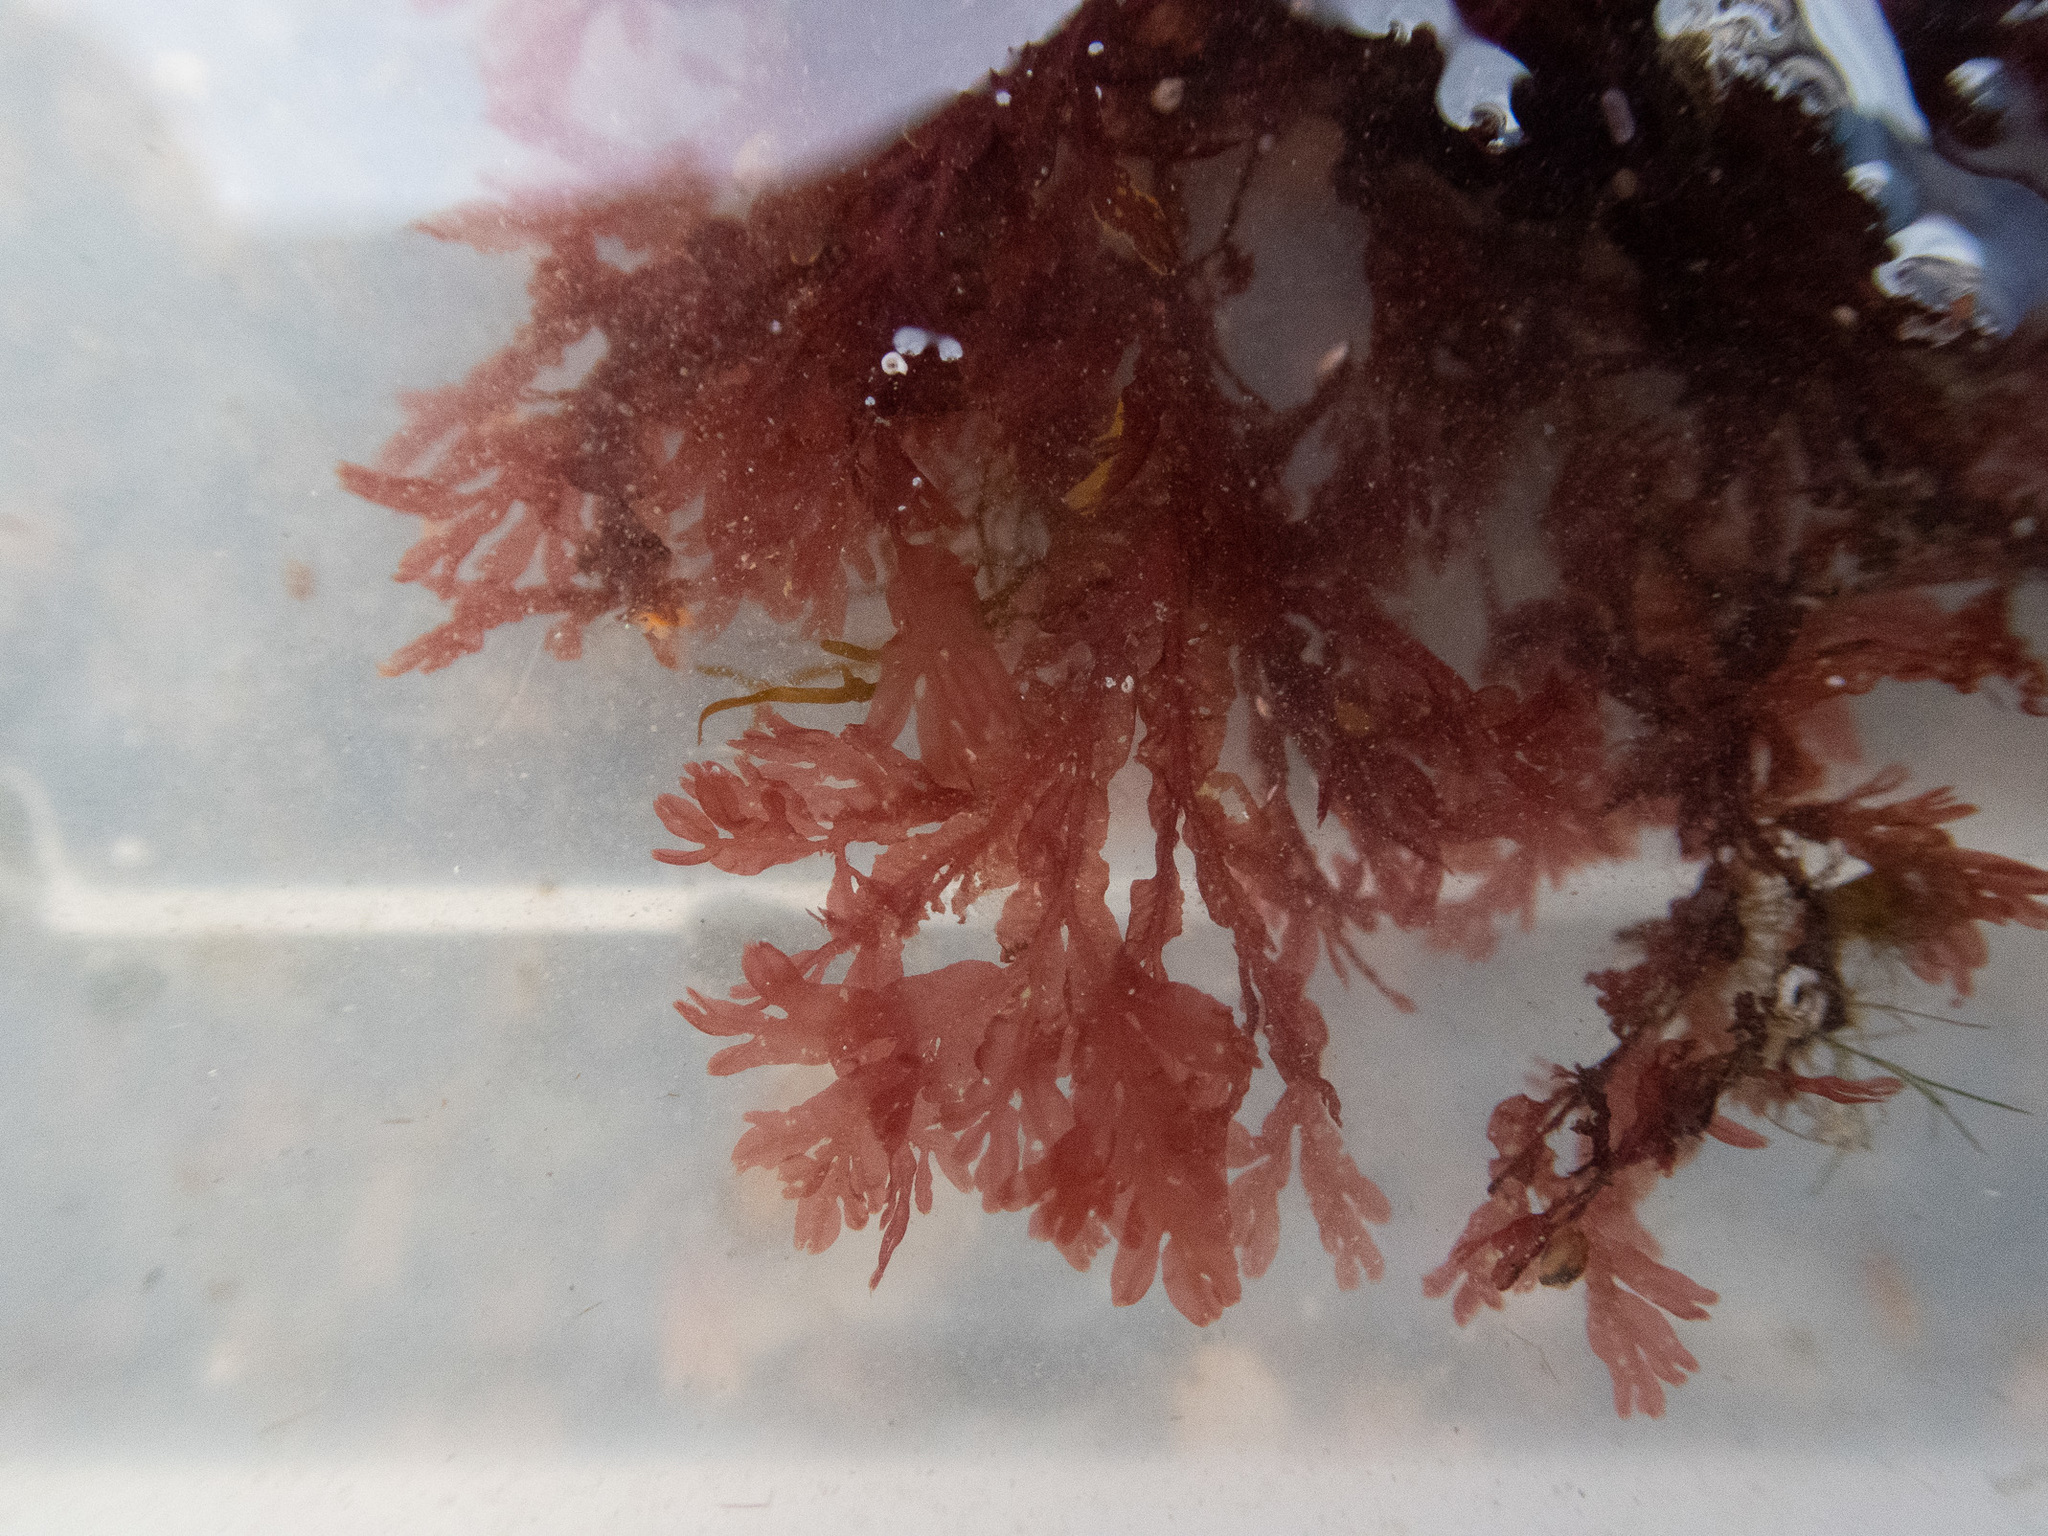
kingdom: Plantae
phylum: Rhodophyta
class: Florideophyceae
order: Ceramiales
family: Delesseriaceae
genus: Membranoptera
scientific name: Membranoptera alata
